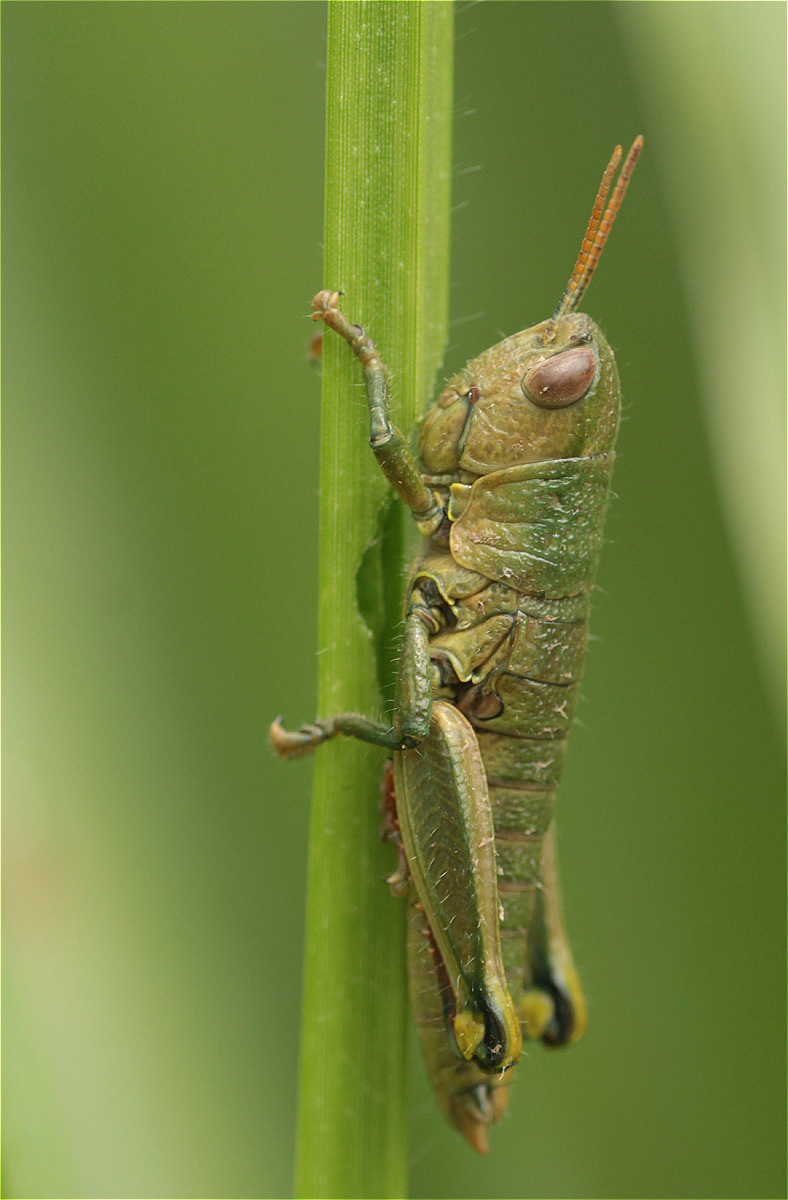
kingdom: Animalia
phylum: Arthropoda
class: Insecta
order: Orthoptera
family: Romaleidae
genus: Quitus
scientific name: Quitus zurucucho
